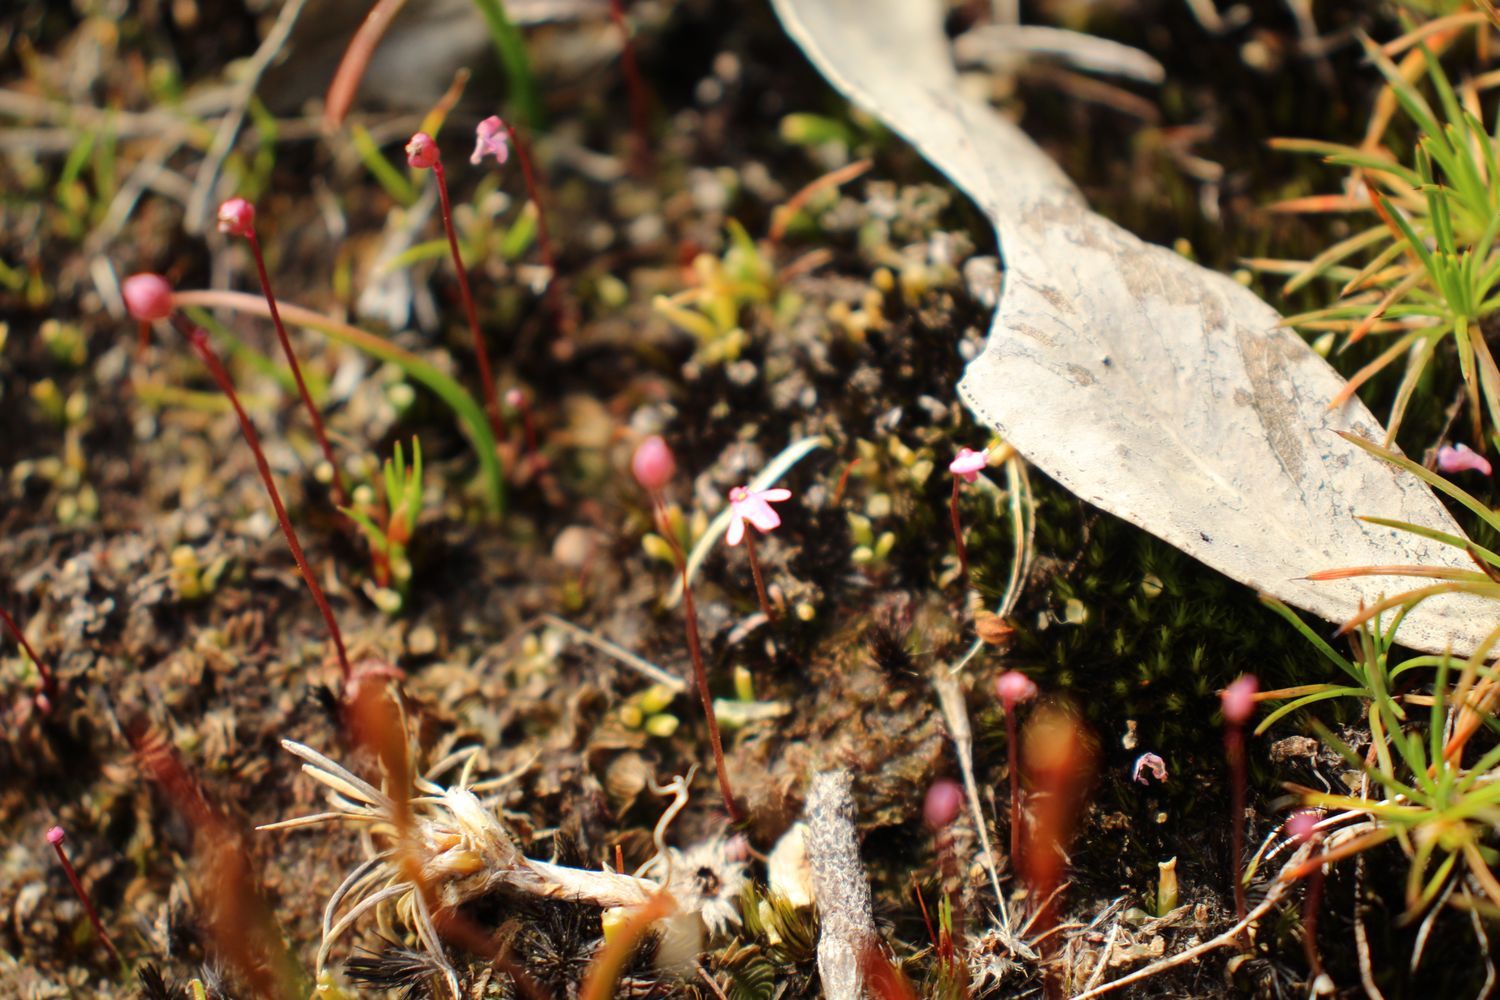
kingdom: Plantae
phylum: Tracheophyta
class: Magnoliopsida
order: Lamiales
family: Lentibulariaceae
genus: Utricularia
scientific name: Utricularia tenella
